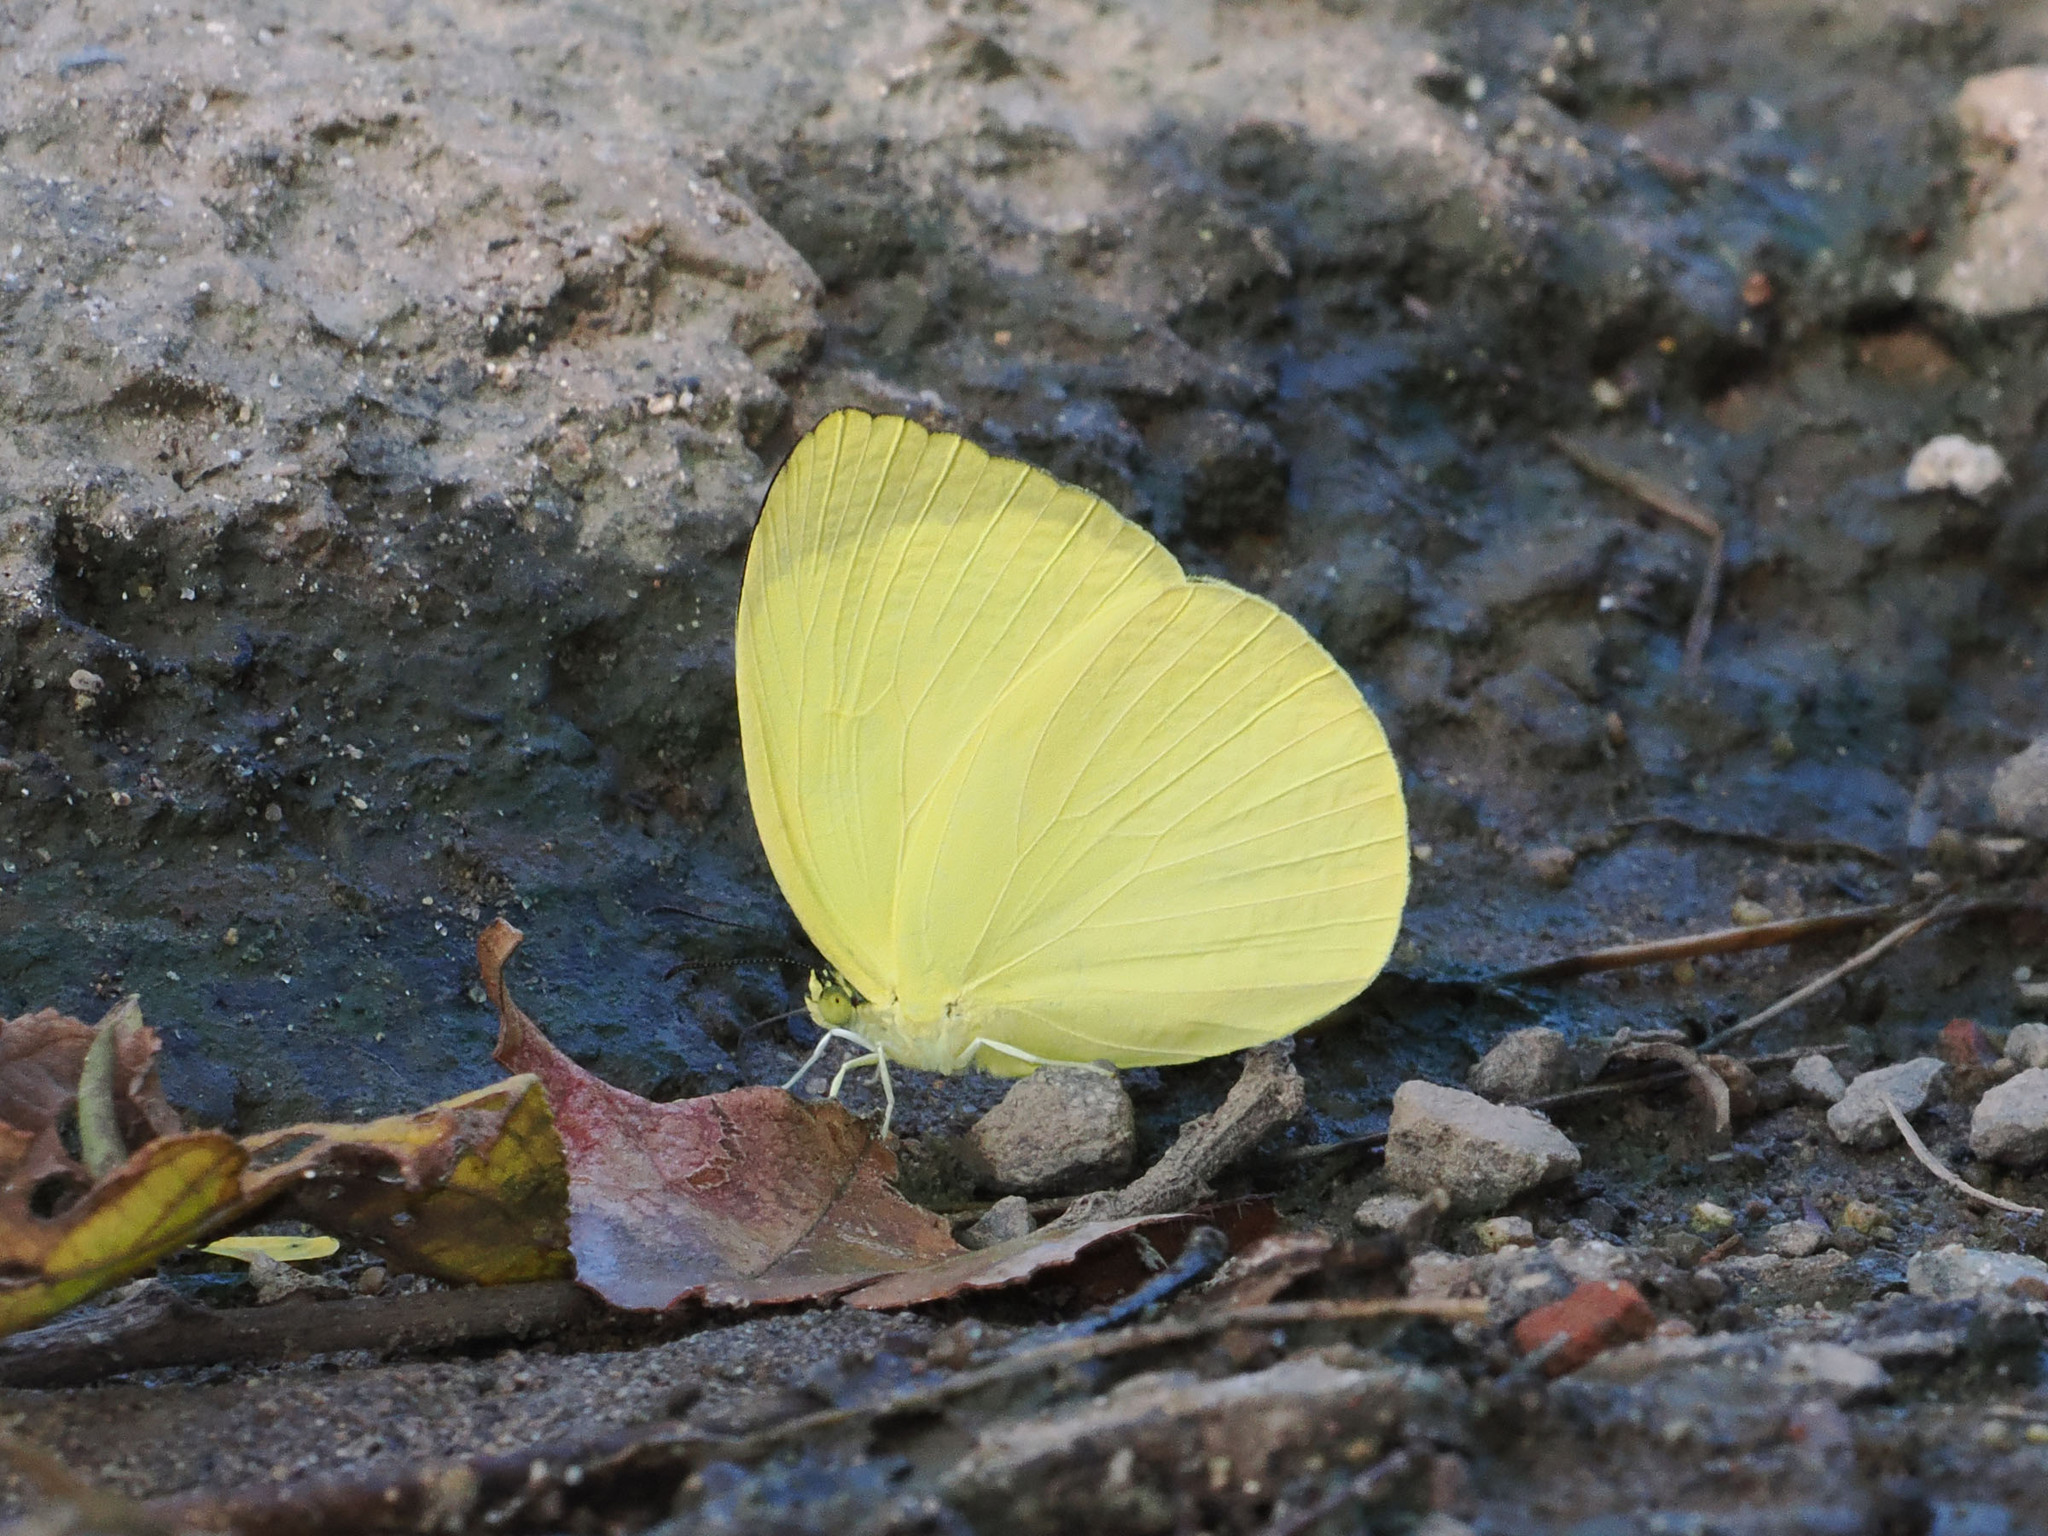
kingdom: Animalia
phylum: Arthropoda
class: Insecta
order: Lepidoptera
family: Pieridae
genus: Gandaca
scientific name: Gandaca harina
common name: Tree yellow
